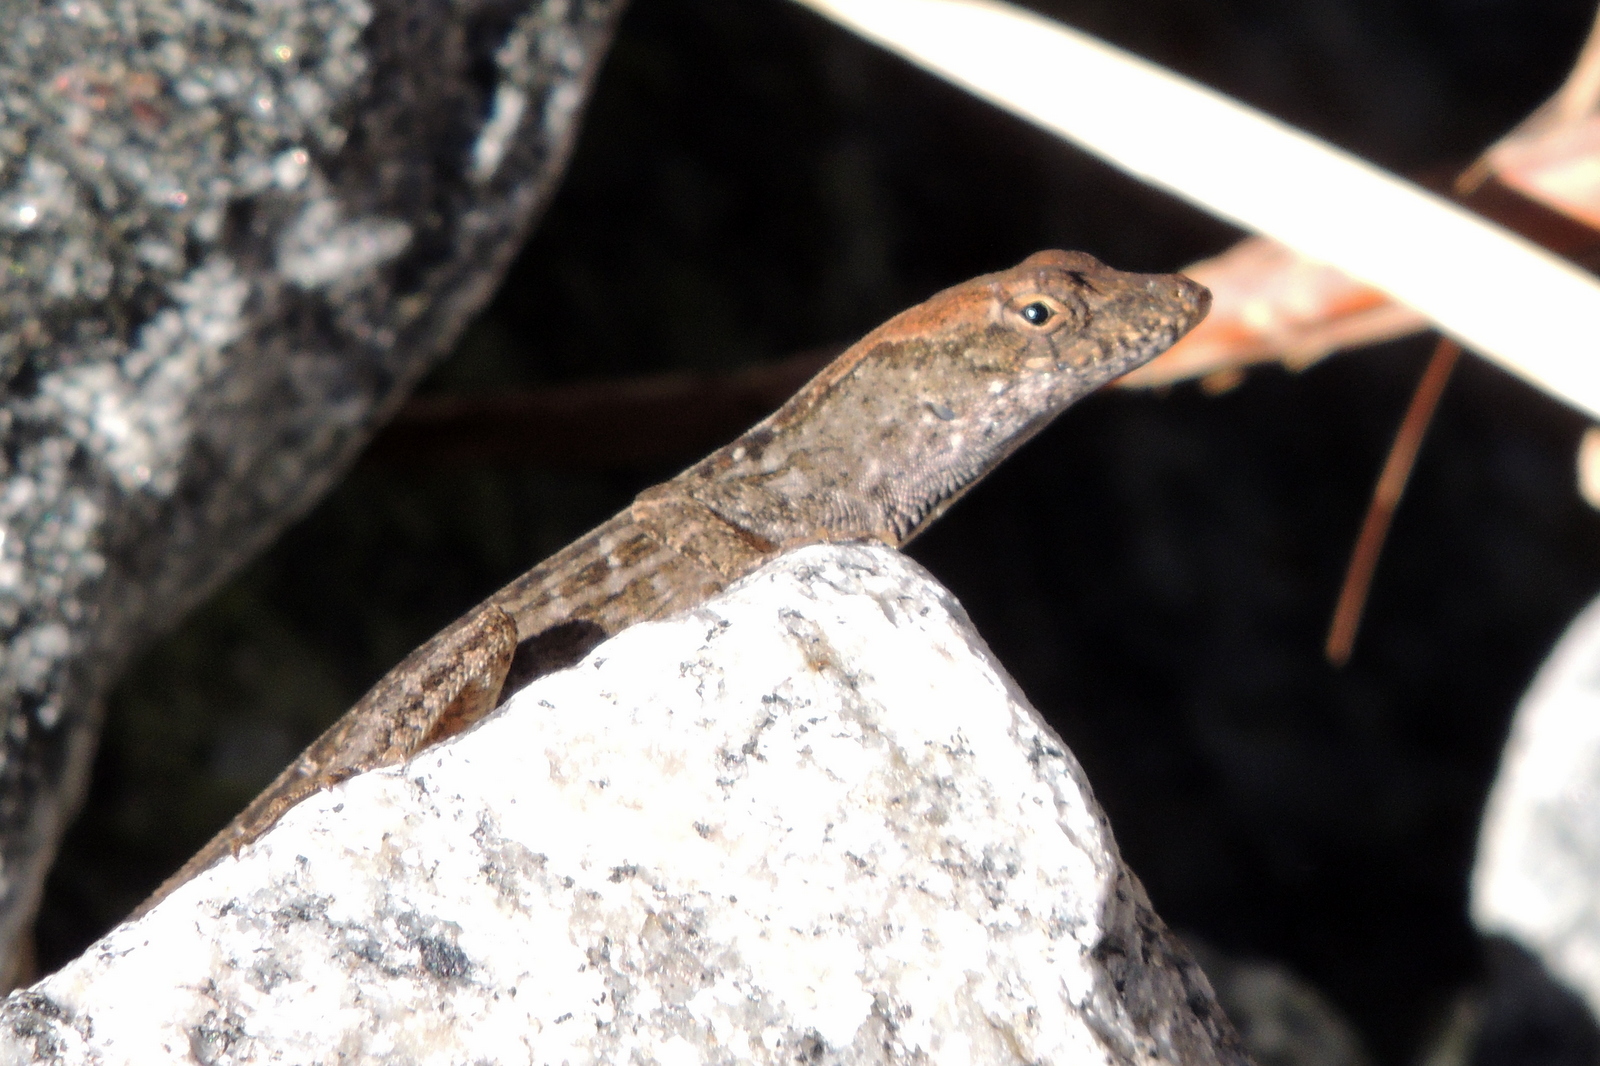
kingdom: Animalia
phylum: Chordata
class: Squamata
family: Dactyloidae
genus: Anolis
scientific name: Anolis sagrei
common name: Brown anole
